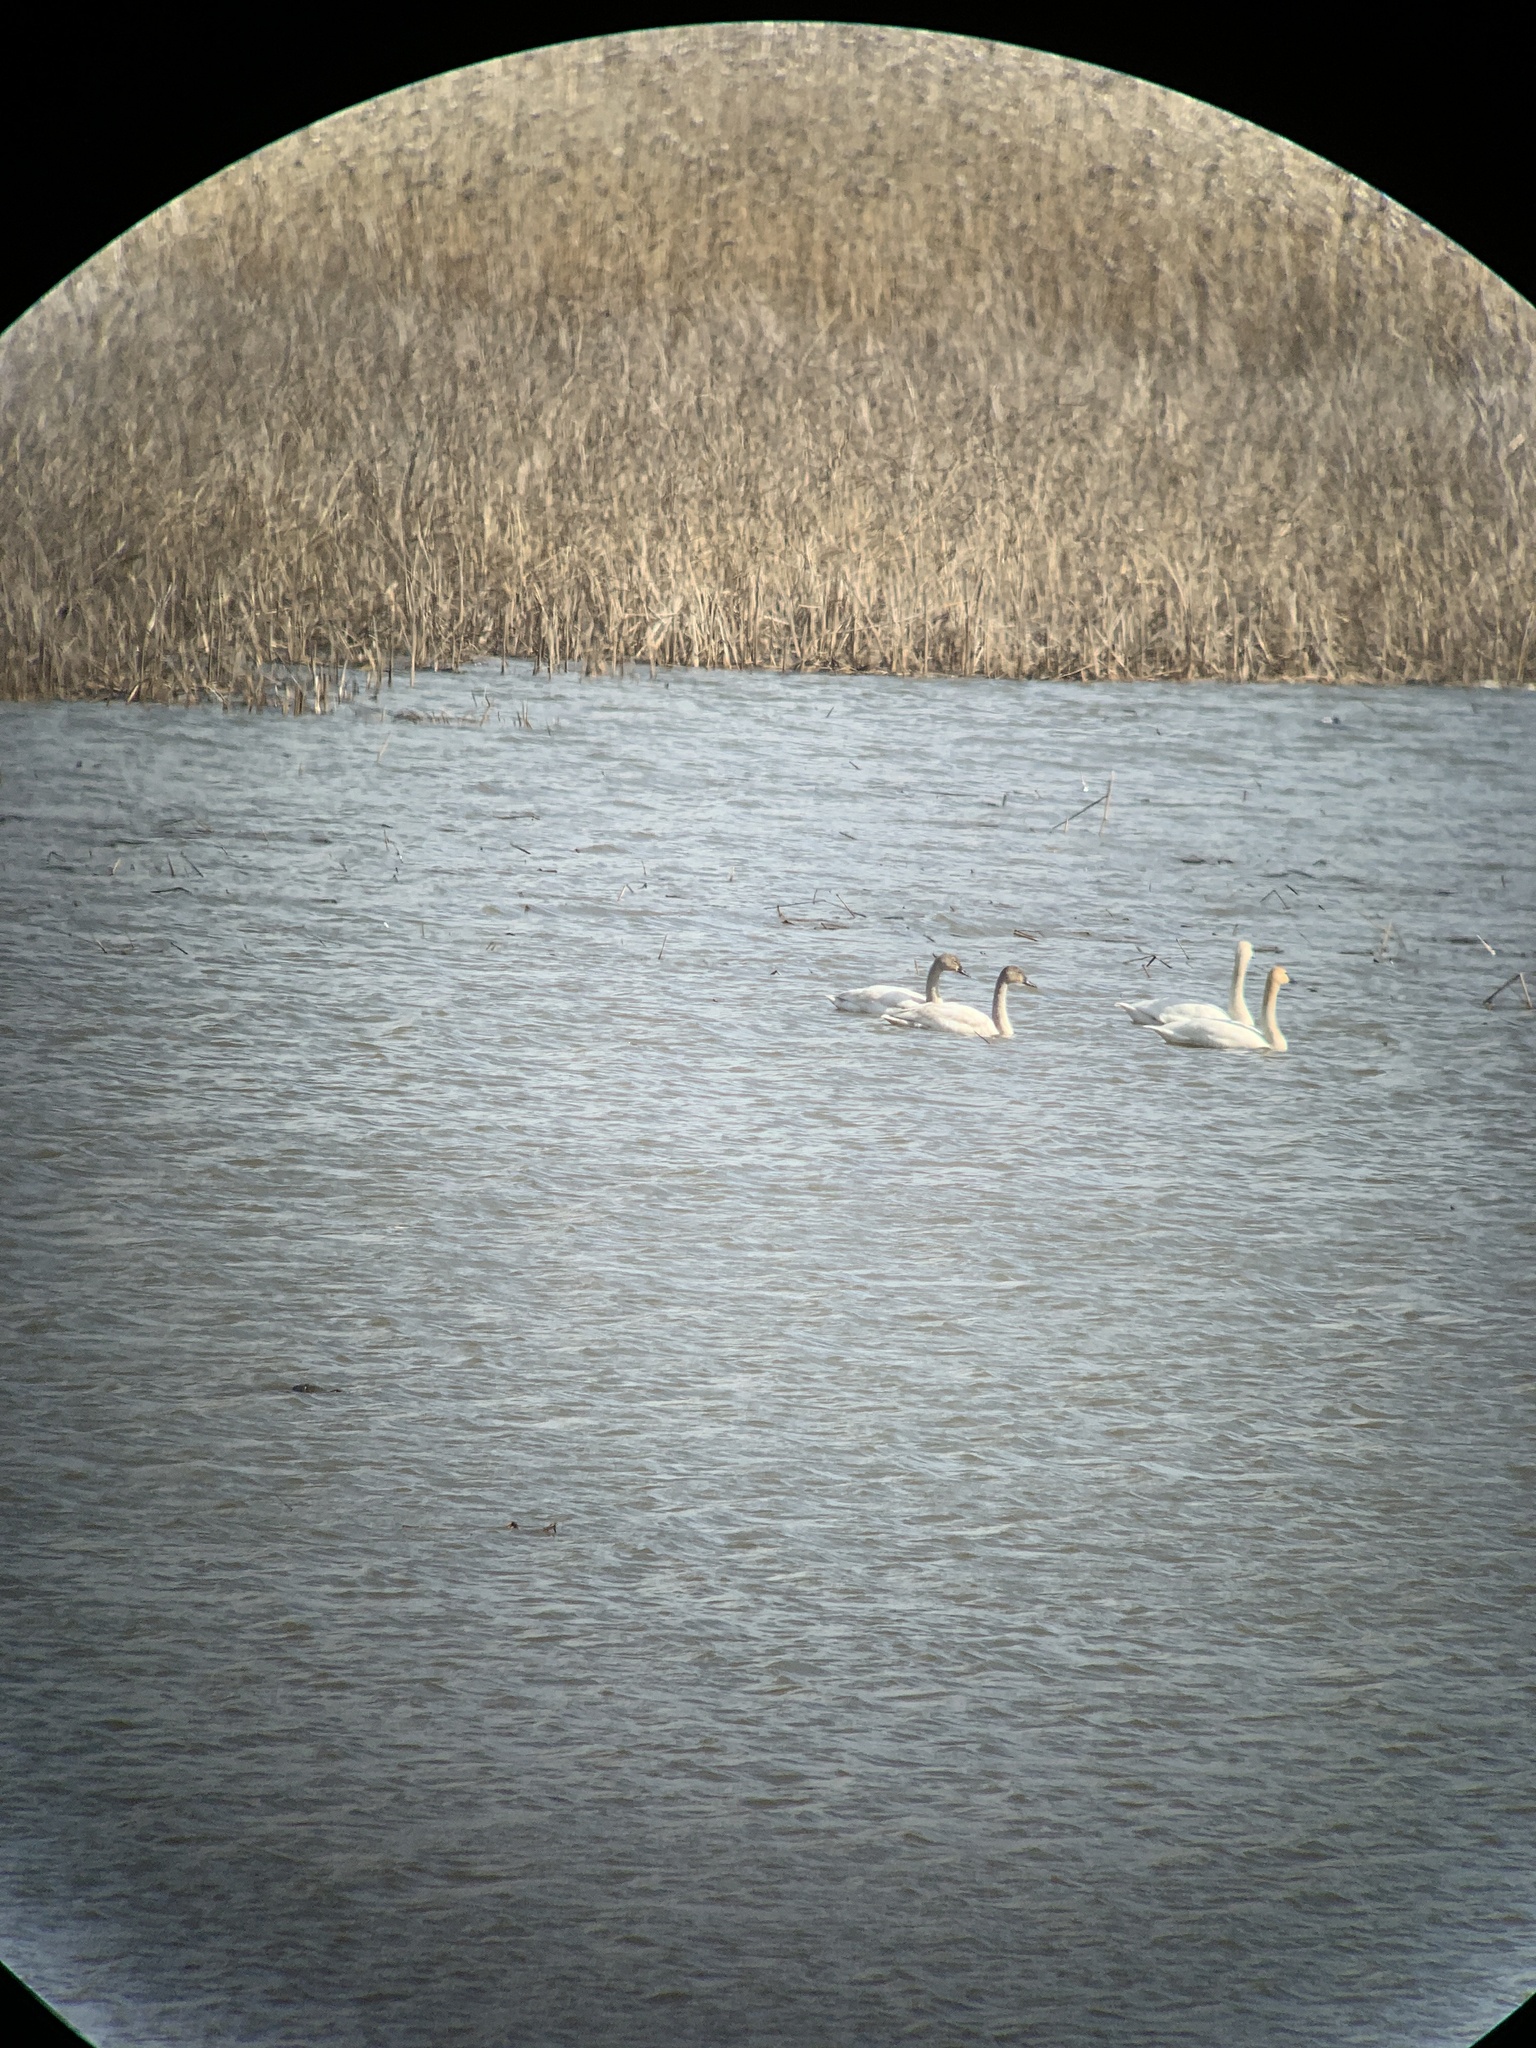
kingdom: Animalia
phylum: Chordata
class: Aves
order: Anseriformes
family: Anatidae
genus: Cygnus
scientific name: Cygnus columbianus
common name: Tundra swan
